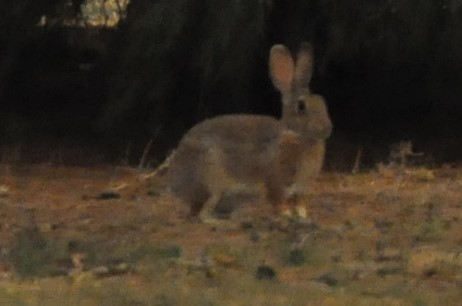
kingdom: Animalia
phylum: Chordata
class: Mammalia
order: Lagomorpha
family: Leporidae
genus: Sylvilagus
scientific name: Sylvilagus audubonii
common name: Desert cottontail
